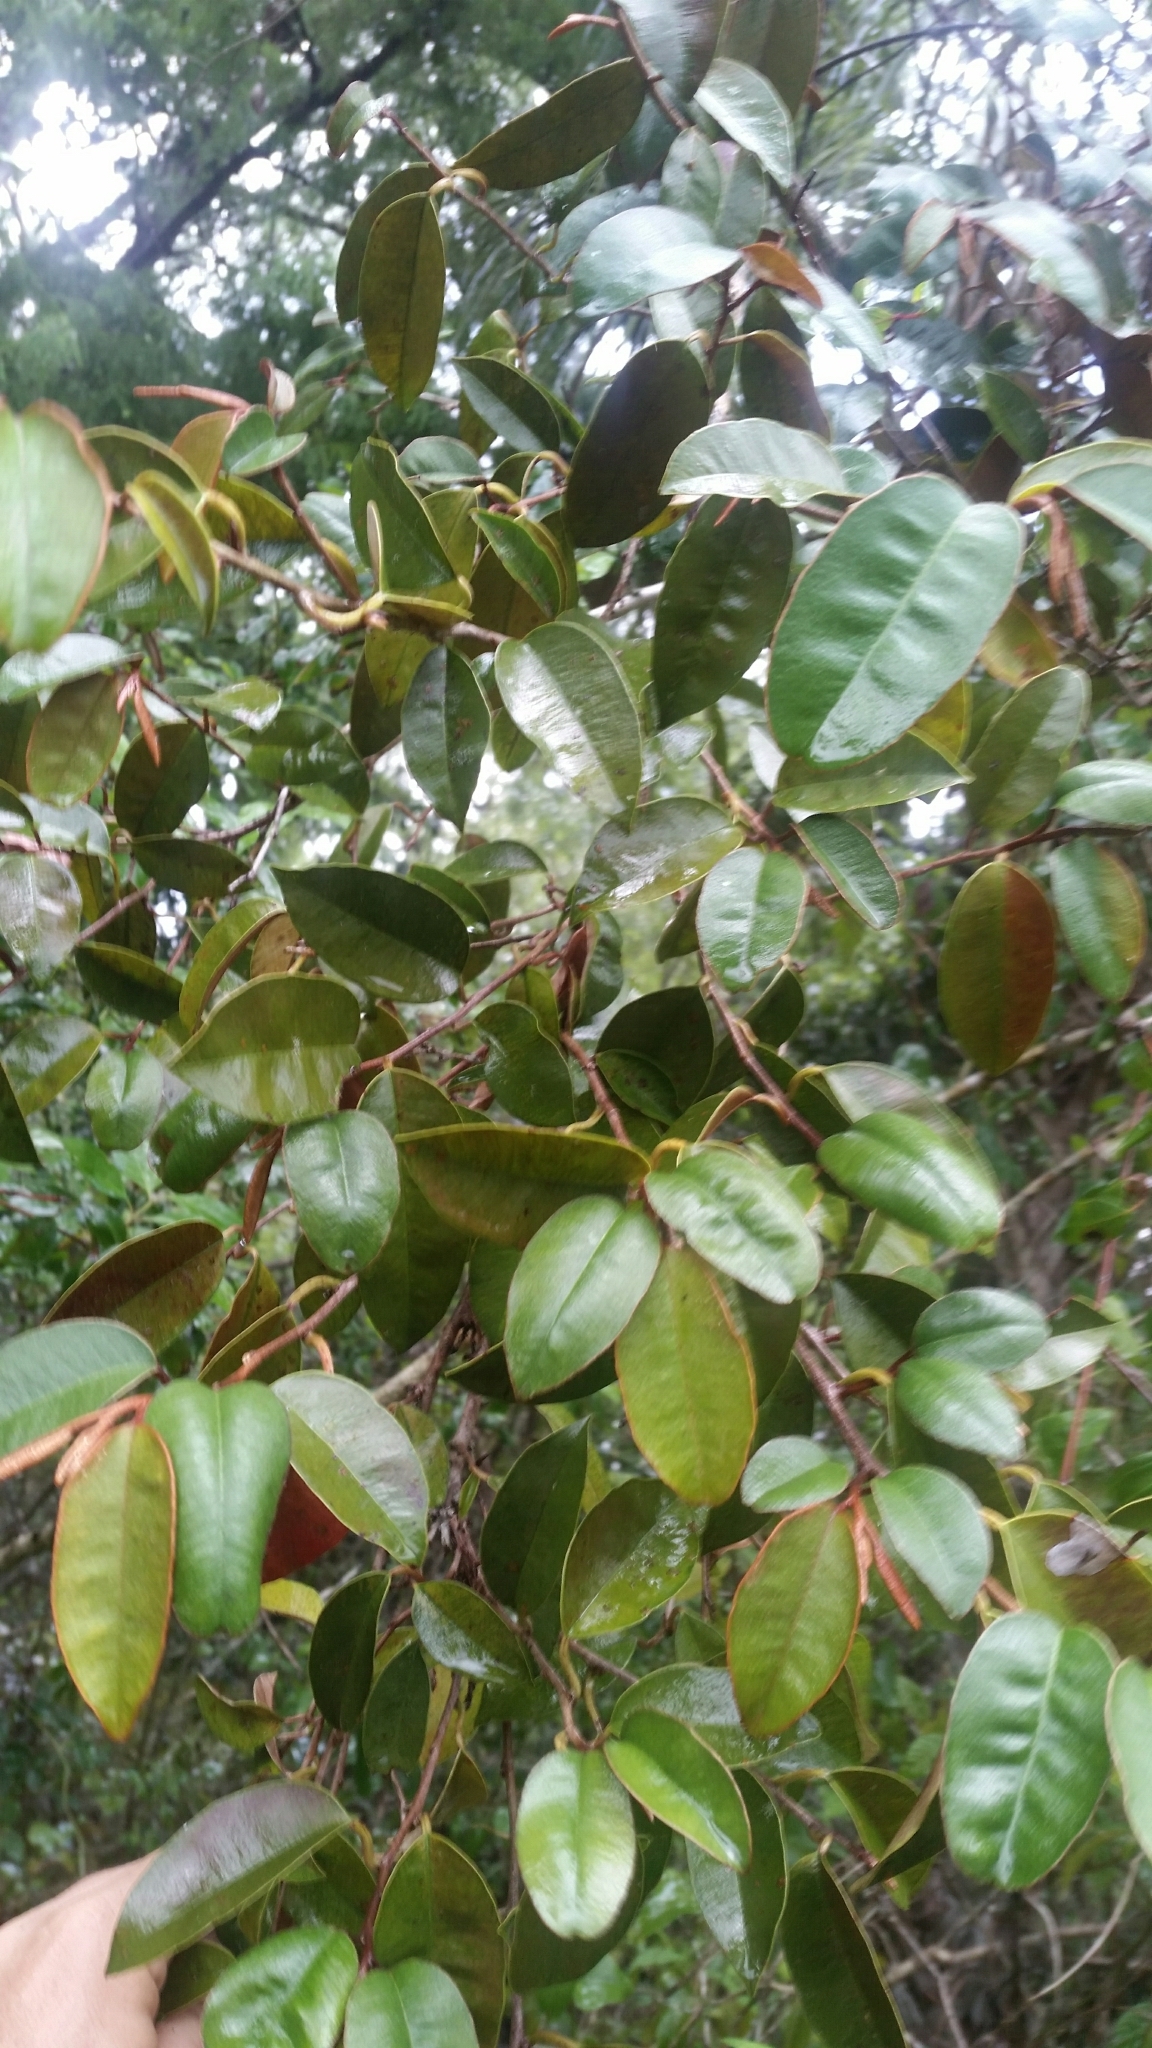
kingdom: Plantae
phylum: Tracheophyta
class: Magnoliopsida
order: Ericales
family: Sapotaceae
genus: Chrysophyllum
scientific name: Chrysophyllum oliviforme
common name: Satinleaf
